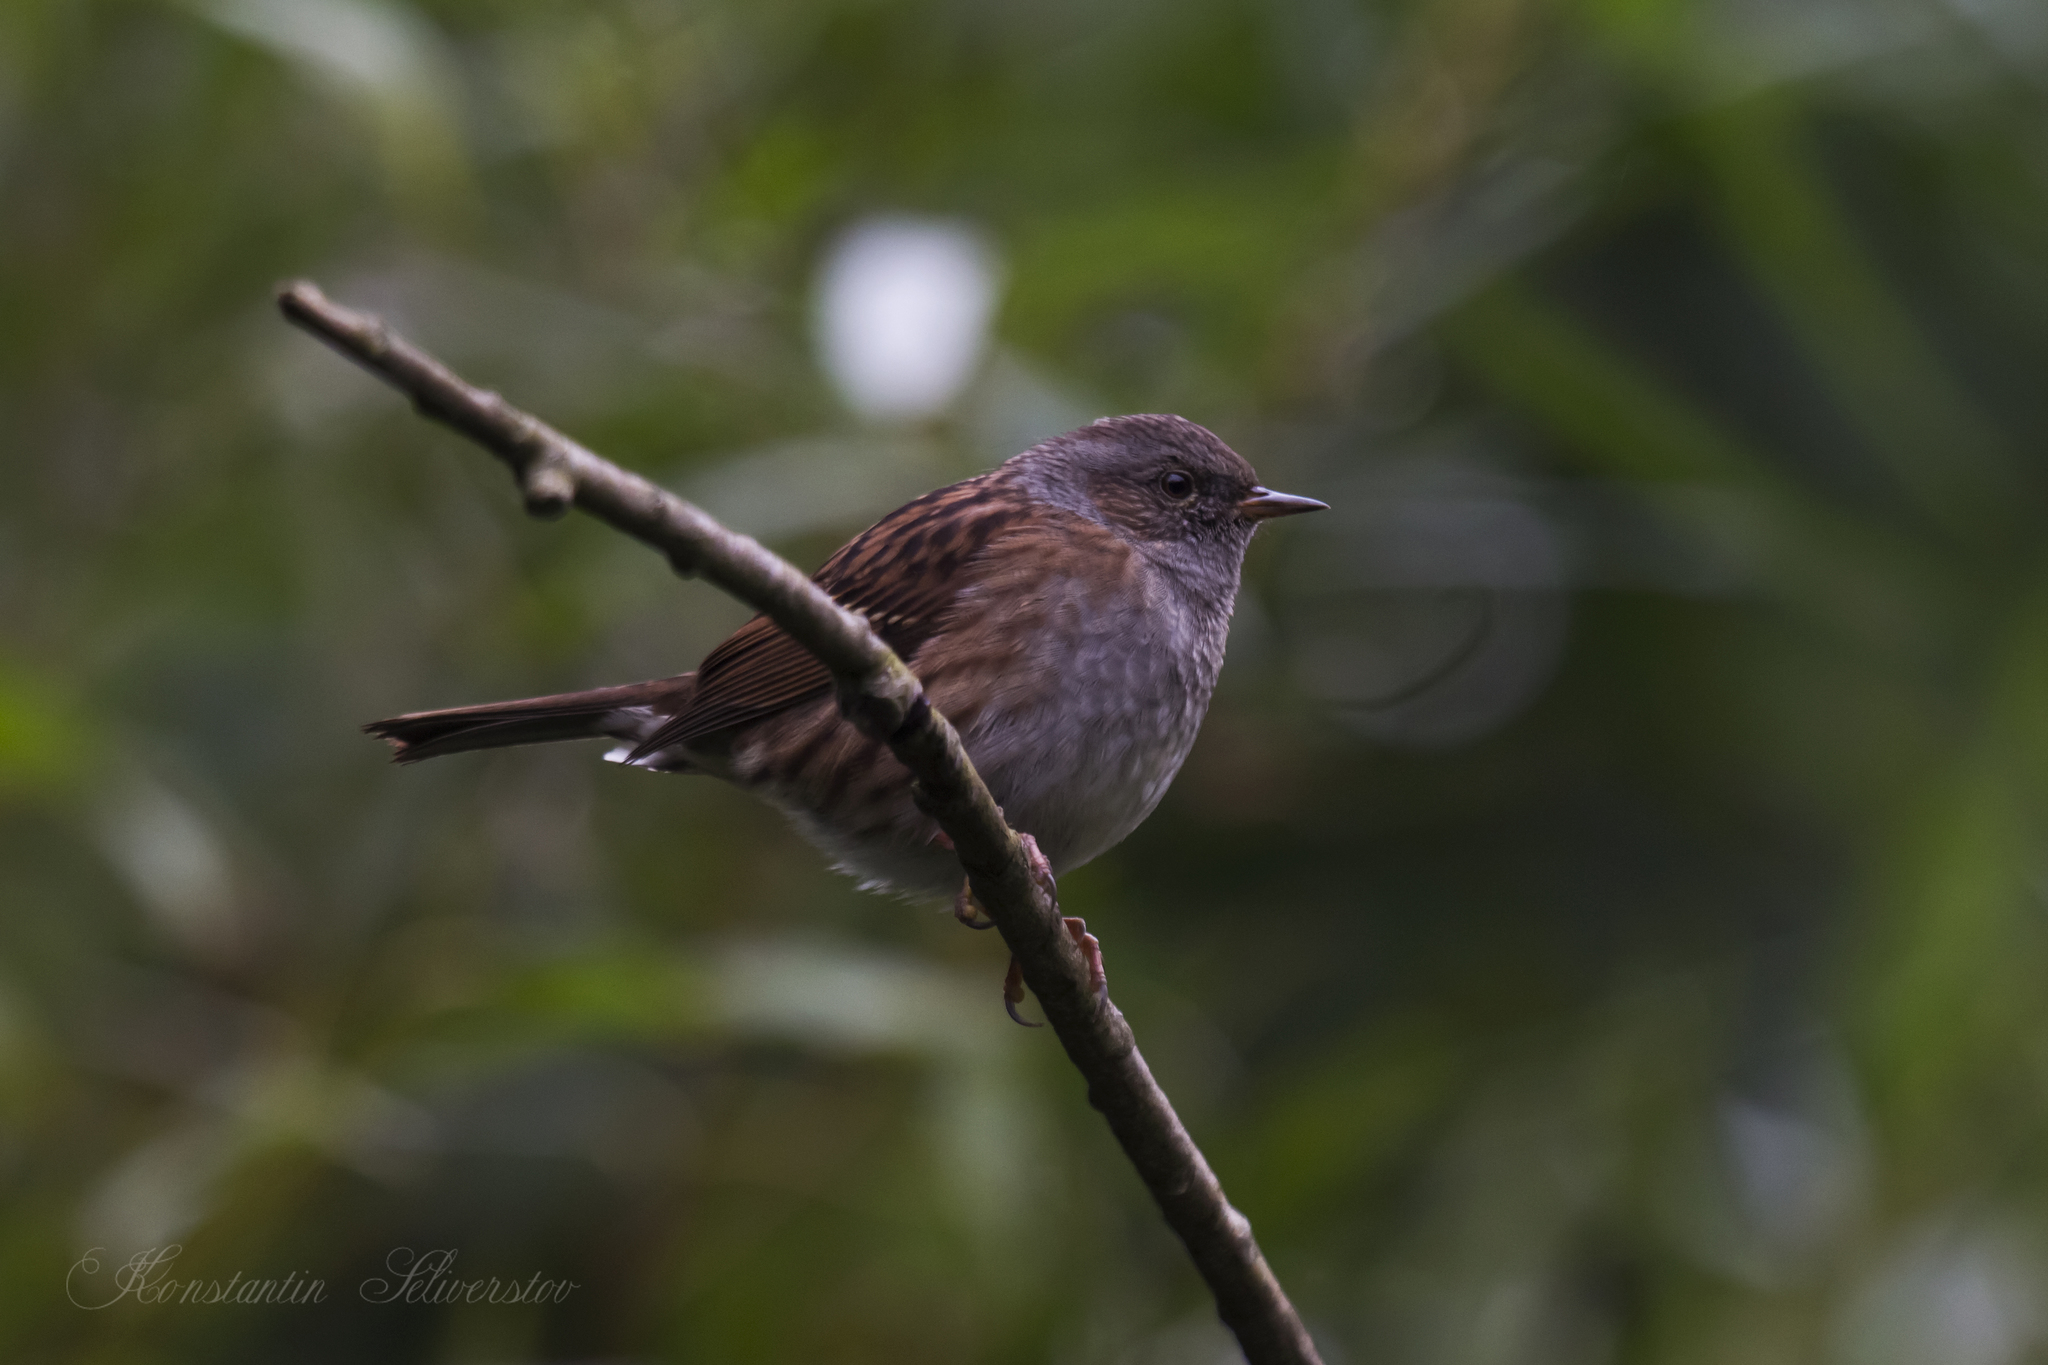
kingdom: Animalia
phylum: Chordata
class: Aves
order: Passeriformes
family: Prunellidae
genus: Prunella
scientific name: Prunella modularis
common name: Dunnock
